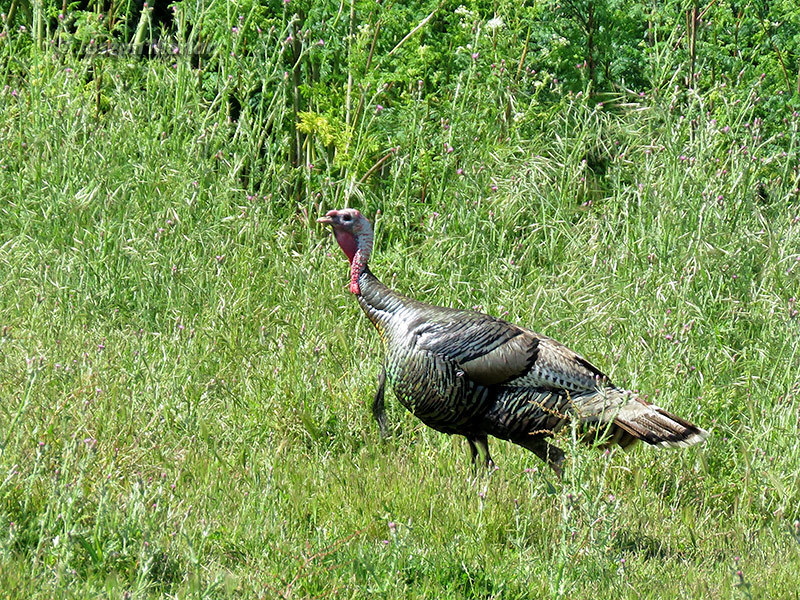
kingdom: Animalia
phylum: Chordata
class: Aves
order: Galliformes
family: Phasianidae
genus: Meleagris
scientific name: Meleagris gallopavo
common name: Wild turkey
